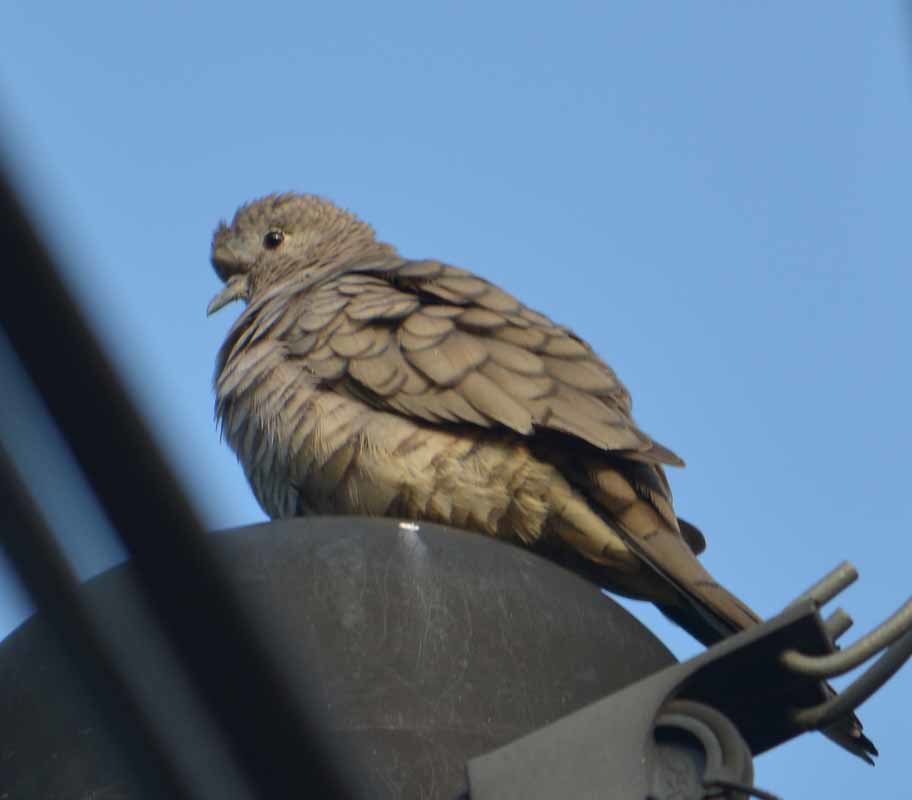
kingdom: Animalia
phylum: Chordata
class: Aves
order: Columbiformes
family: Columbidae
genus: Columbina
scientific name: Columbina inca
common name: Inca dove
